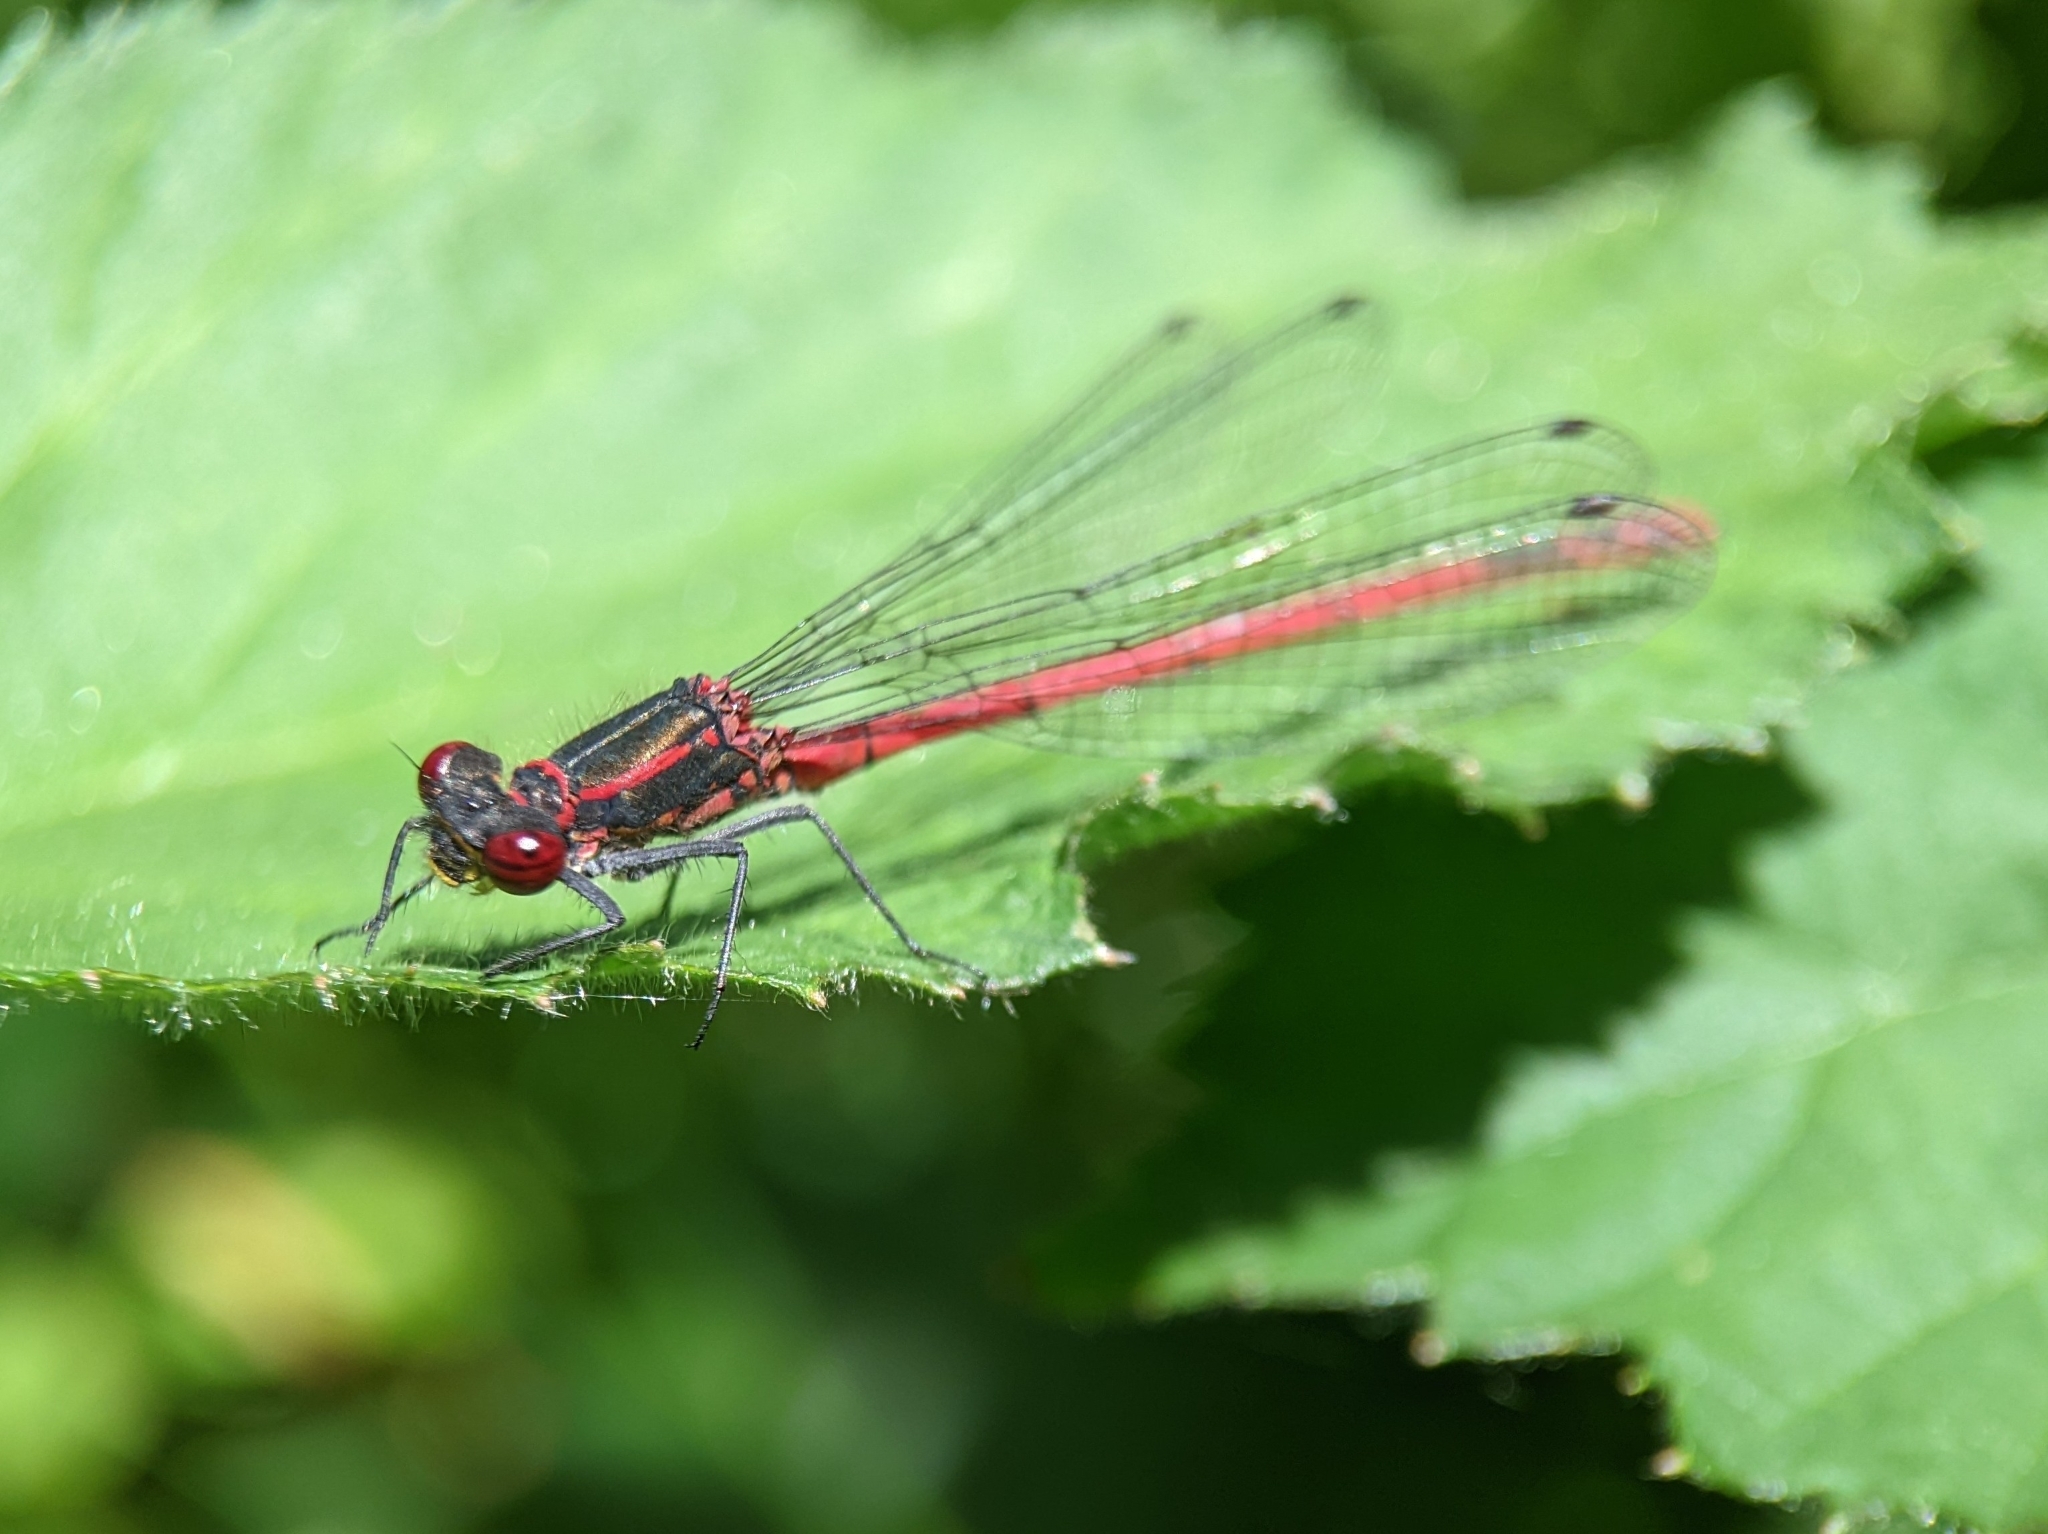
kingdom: Animalia
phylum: Arthropoda
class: Insecta
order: Odonata
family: Coenagrionidae
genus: Pyrrhosoma
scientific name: Pyrrhosoma nymphula
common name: Large red damsel
